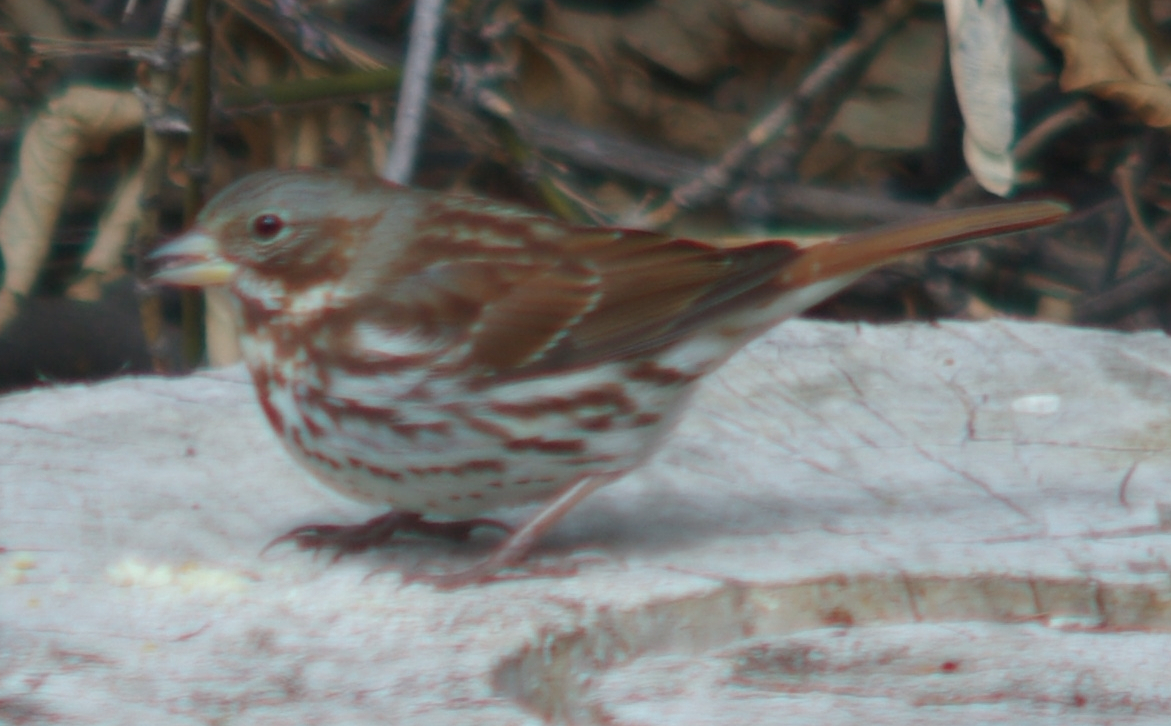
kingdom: Animalia
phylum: Chordata
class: Aves
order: Passeriformes
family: Passerellidae
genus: Passerella
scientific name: Passerella iliaca
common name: Fox sparrow
